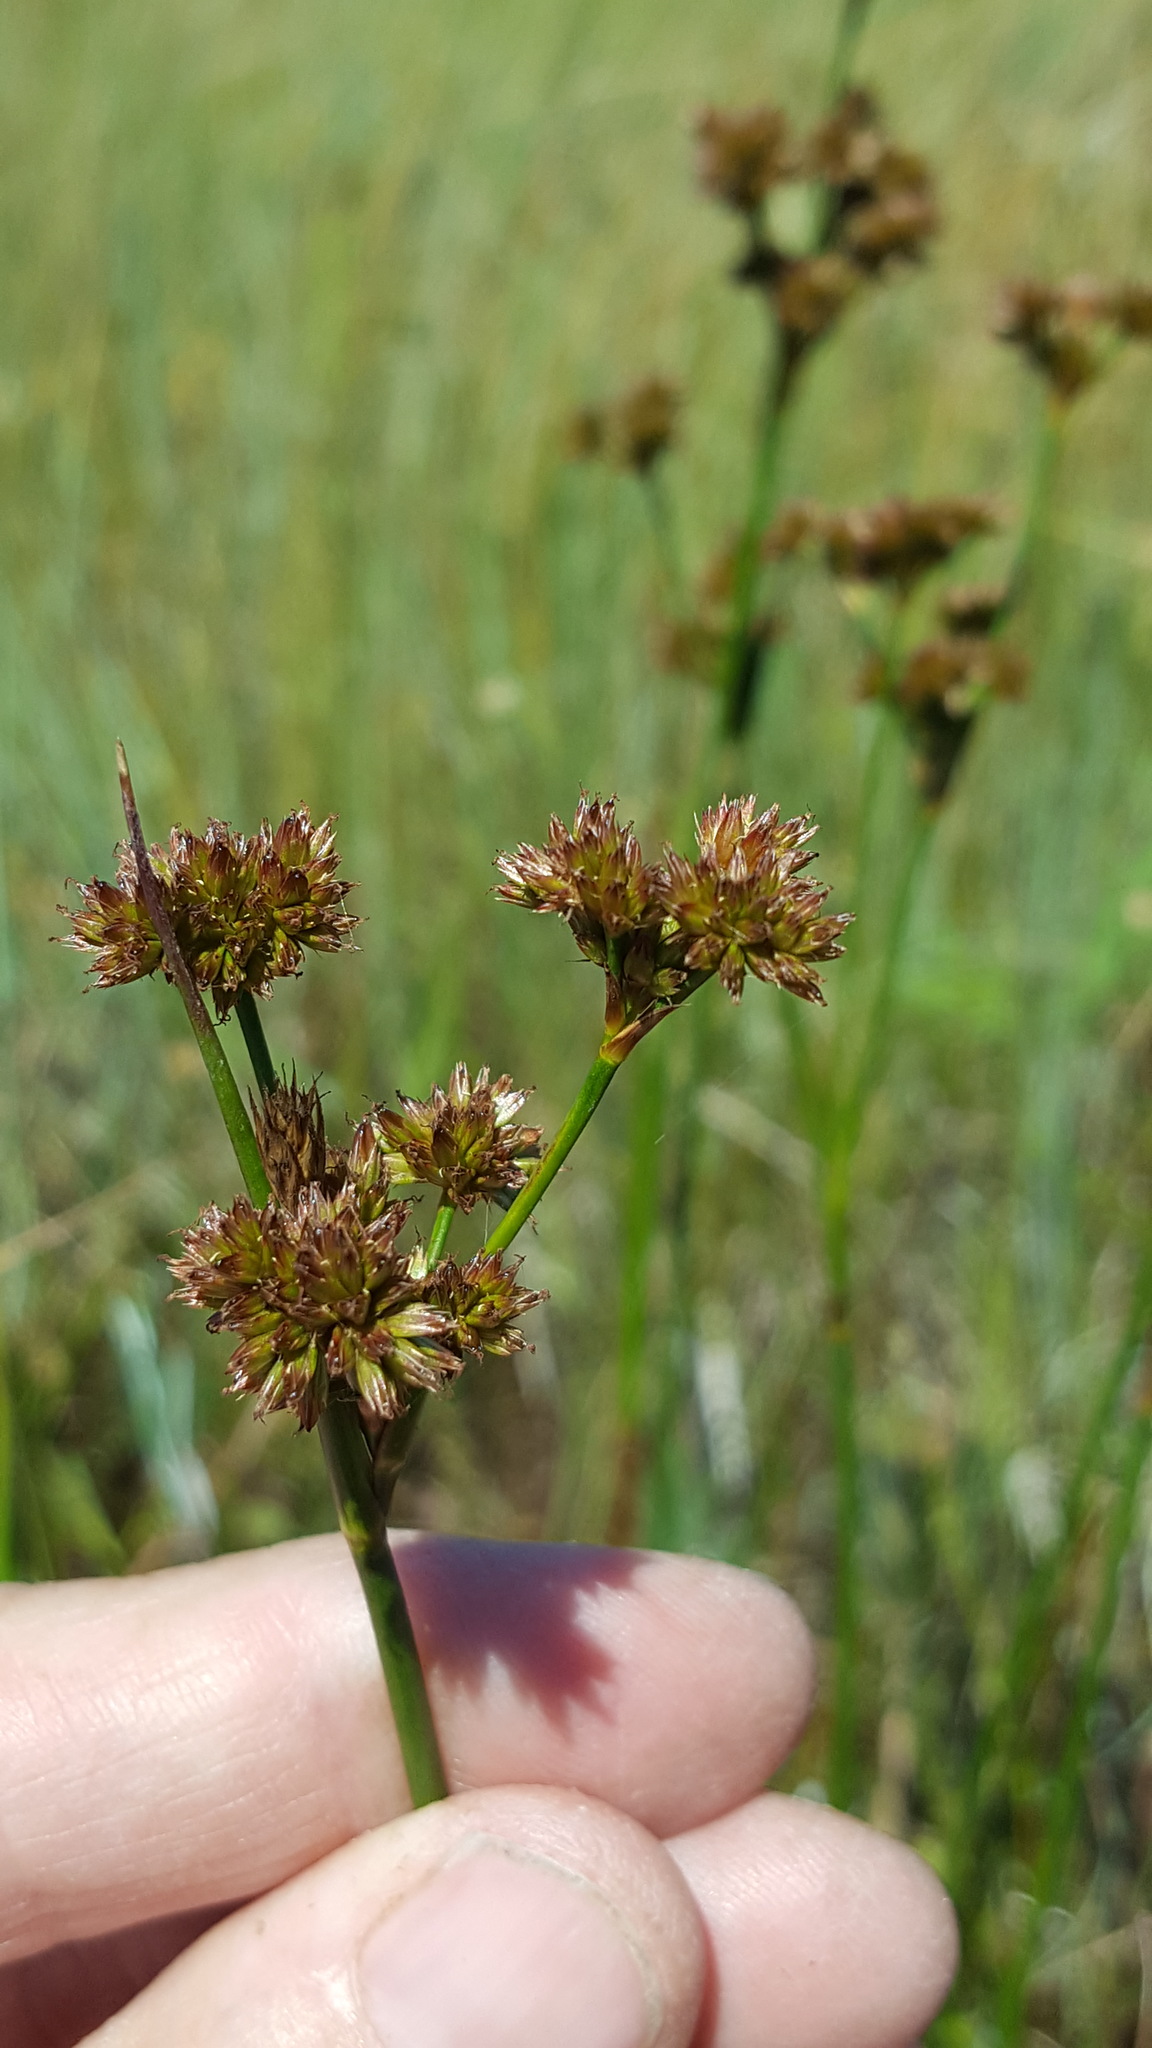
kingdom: Plantae
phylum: Tracheophyta
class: Liliopsida
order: Poales
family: Juncaceae
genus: Juncus
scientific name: Juncus canadensis
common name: Canada rush
